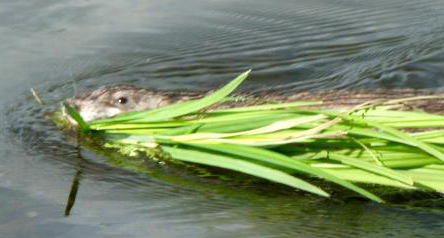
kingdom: Animalia
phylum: Chordata
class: Mammalia
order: Rodentia
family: Cricetidae
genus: Ondatra
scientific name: Ondatra zibethicus
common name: Muskrat
